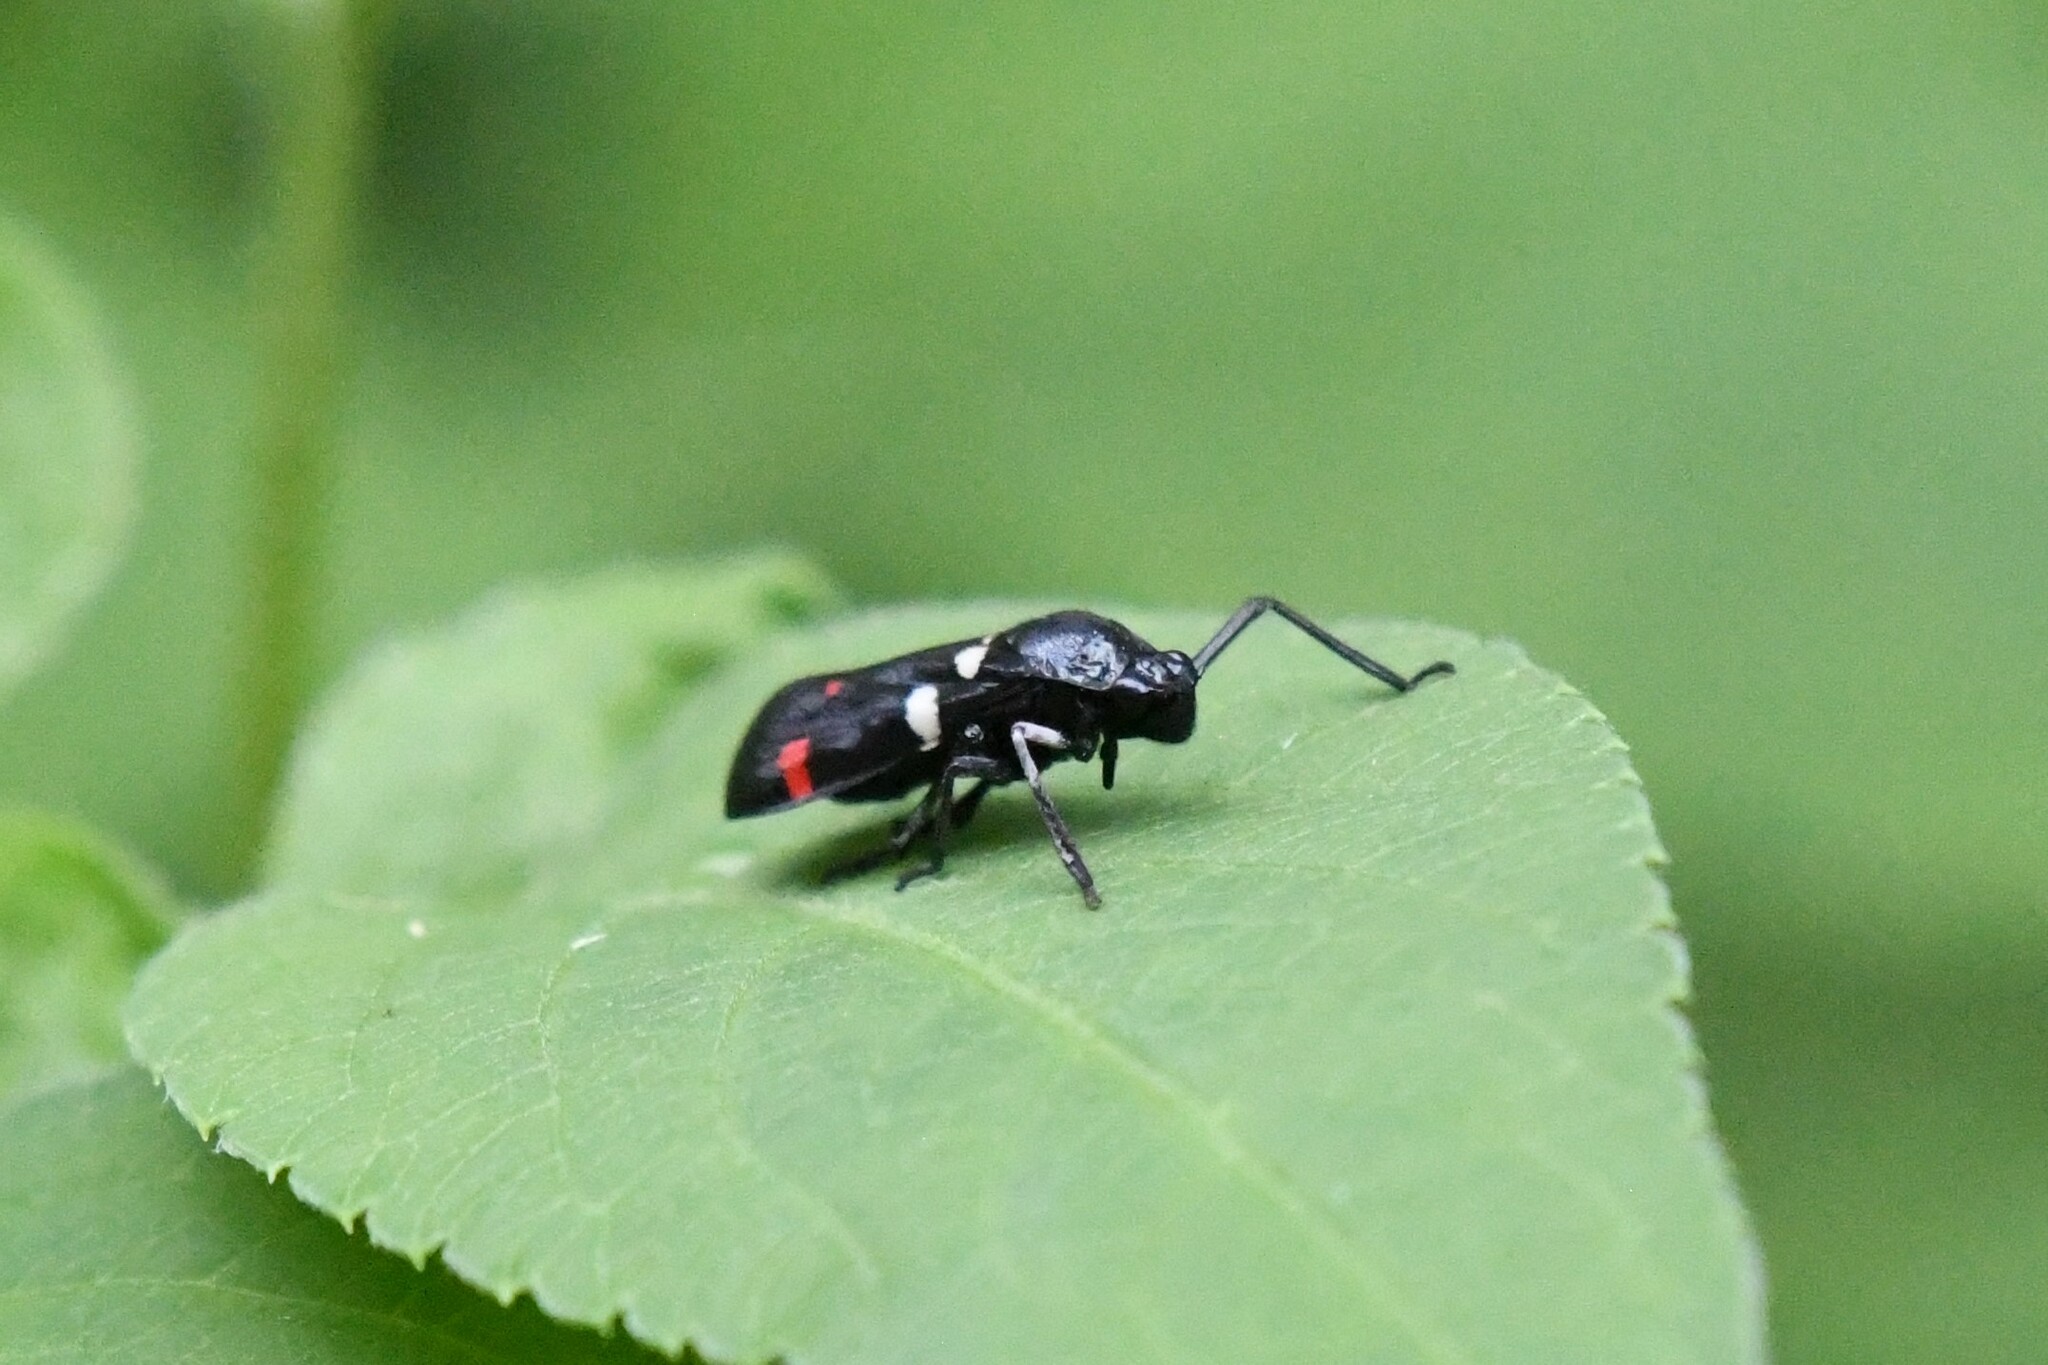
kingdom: Animalia
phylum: Arthropoda
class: Insecta
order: Hemiptera
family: Cercopidae
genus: Callitettix
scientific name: Callitettix versicolor
